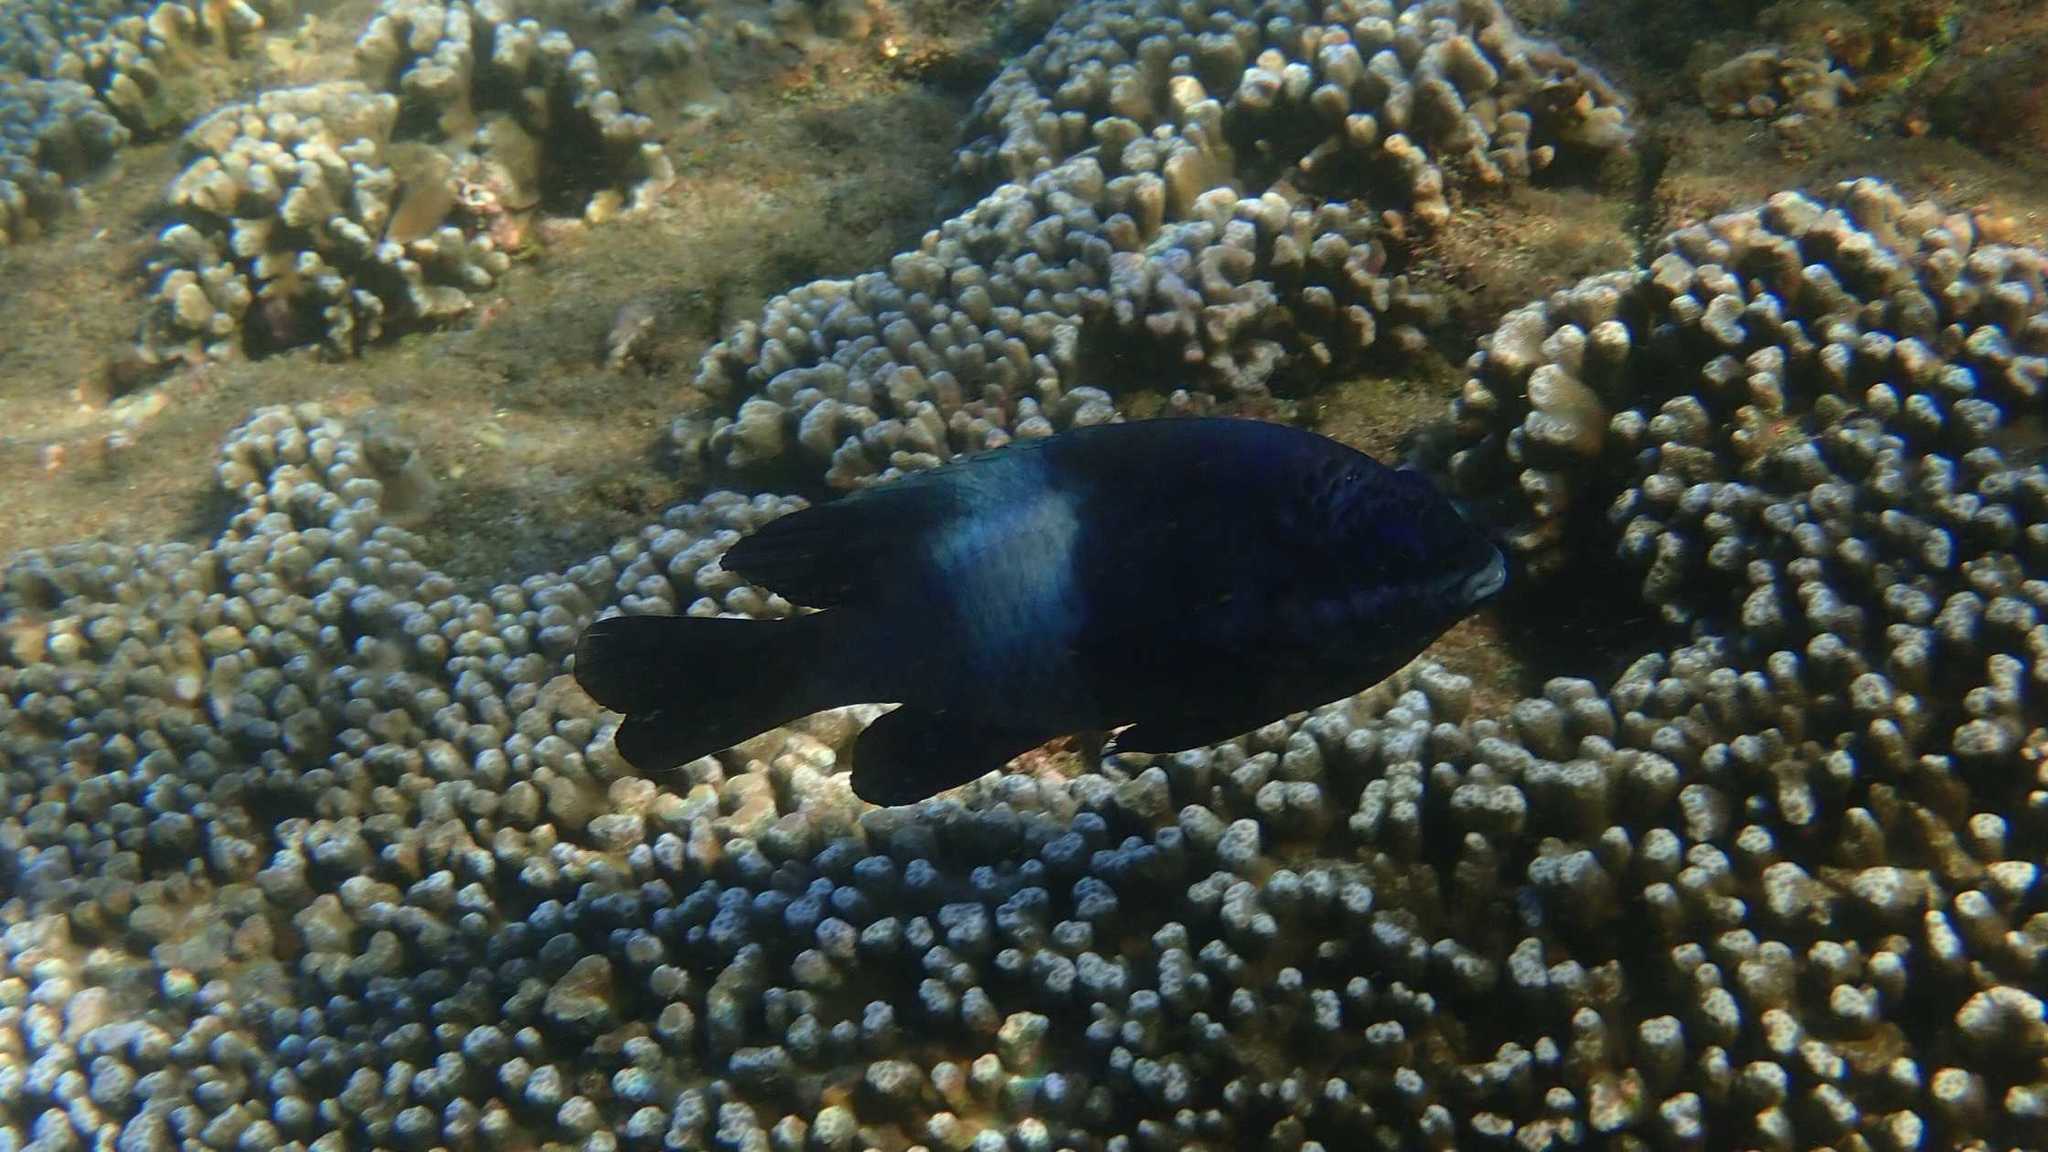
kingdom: Animalia
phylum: Chordata
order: Perciformes
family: Pomacentridae
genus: Stegastes
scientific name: Stegastes nigricans
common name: Dusky gregory
